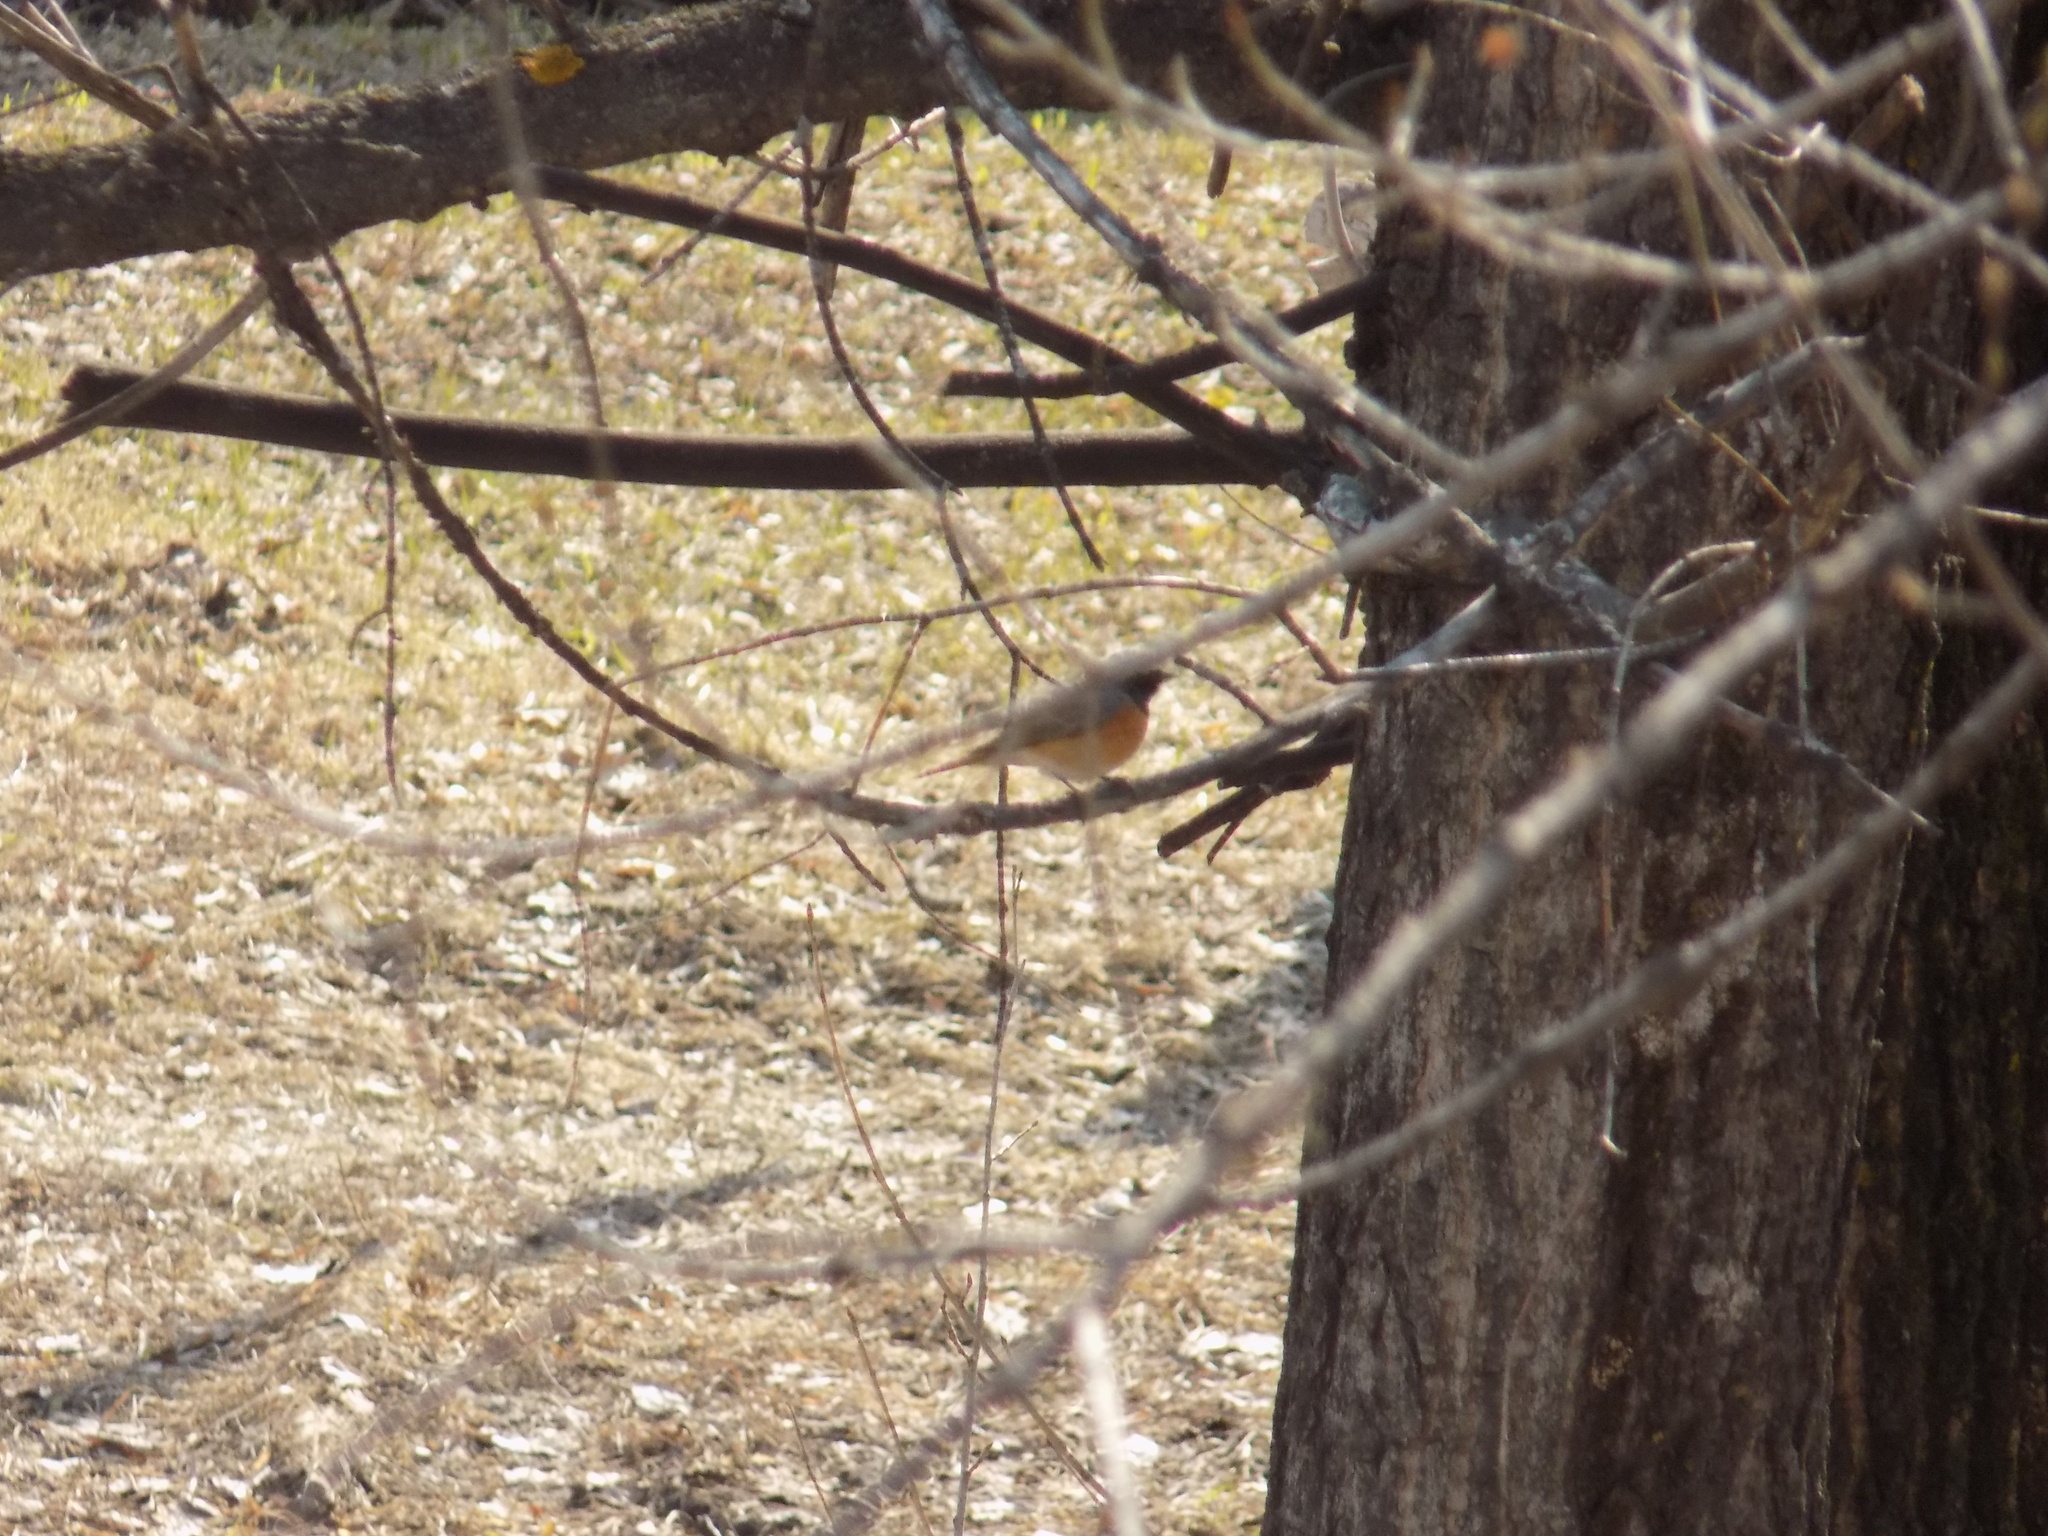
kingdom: Animalia
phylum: Chordata
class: Aves
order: Passeriformes
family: Muscicapidae
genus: Phoenicurus
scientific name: Phoenicurus phoenicurus
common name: Common redstart
